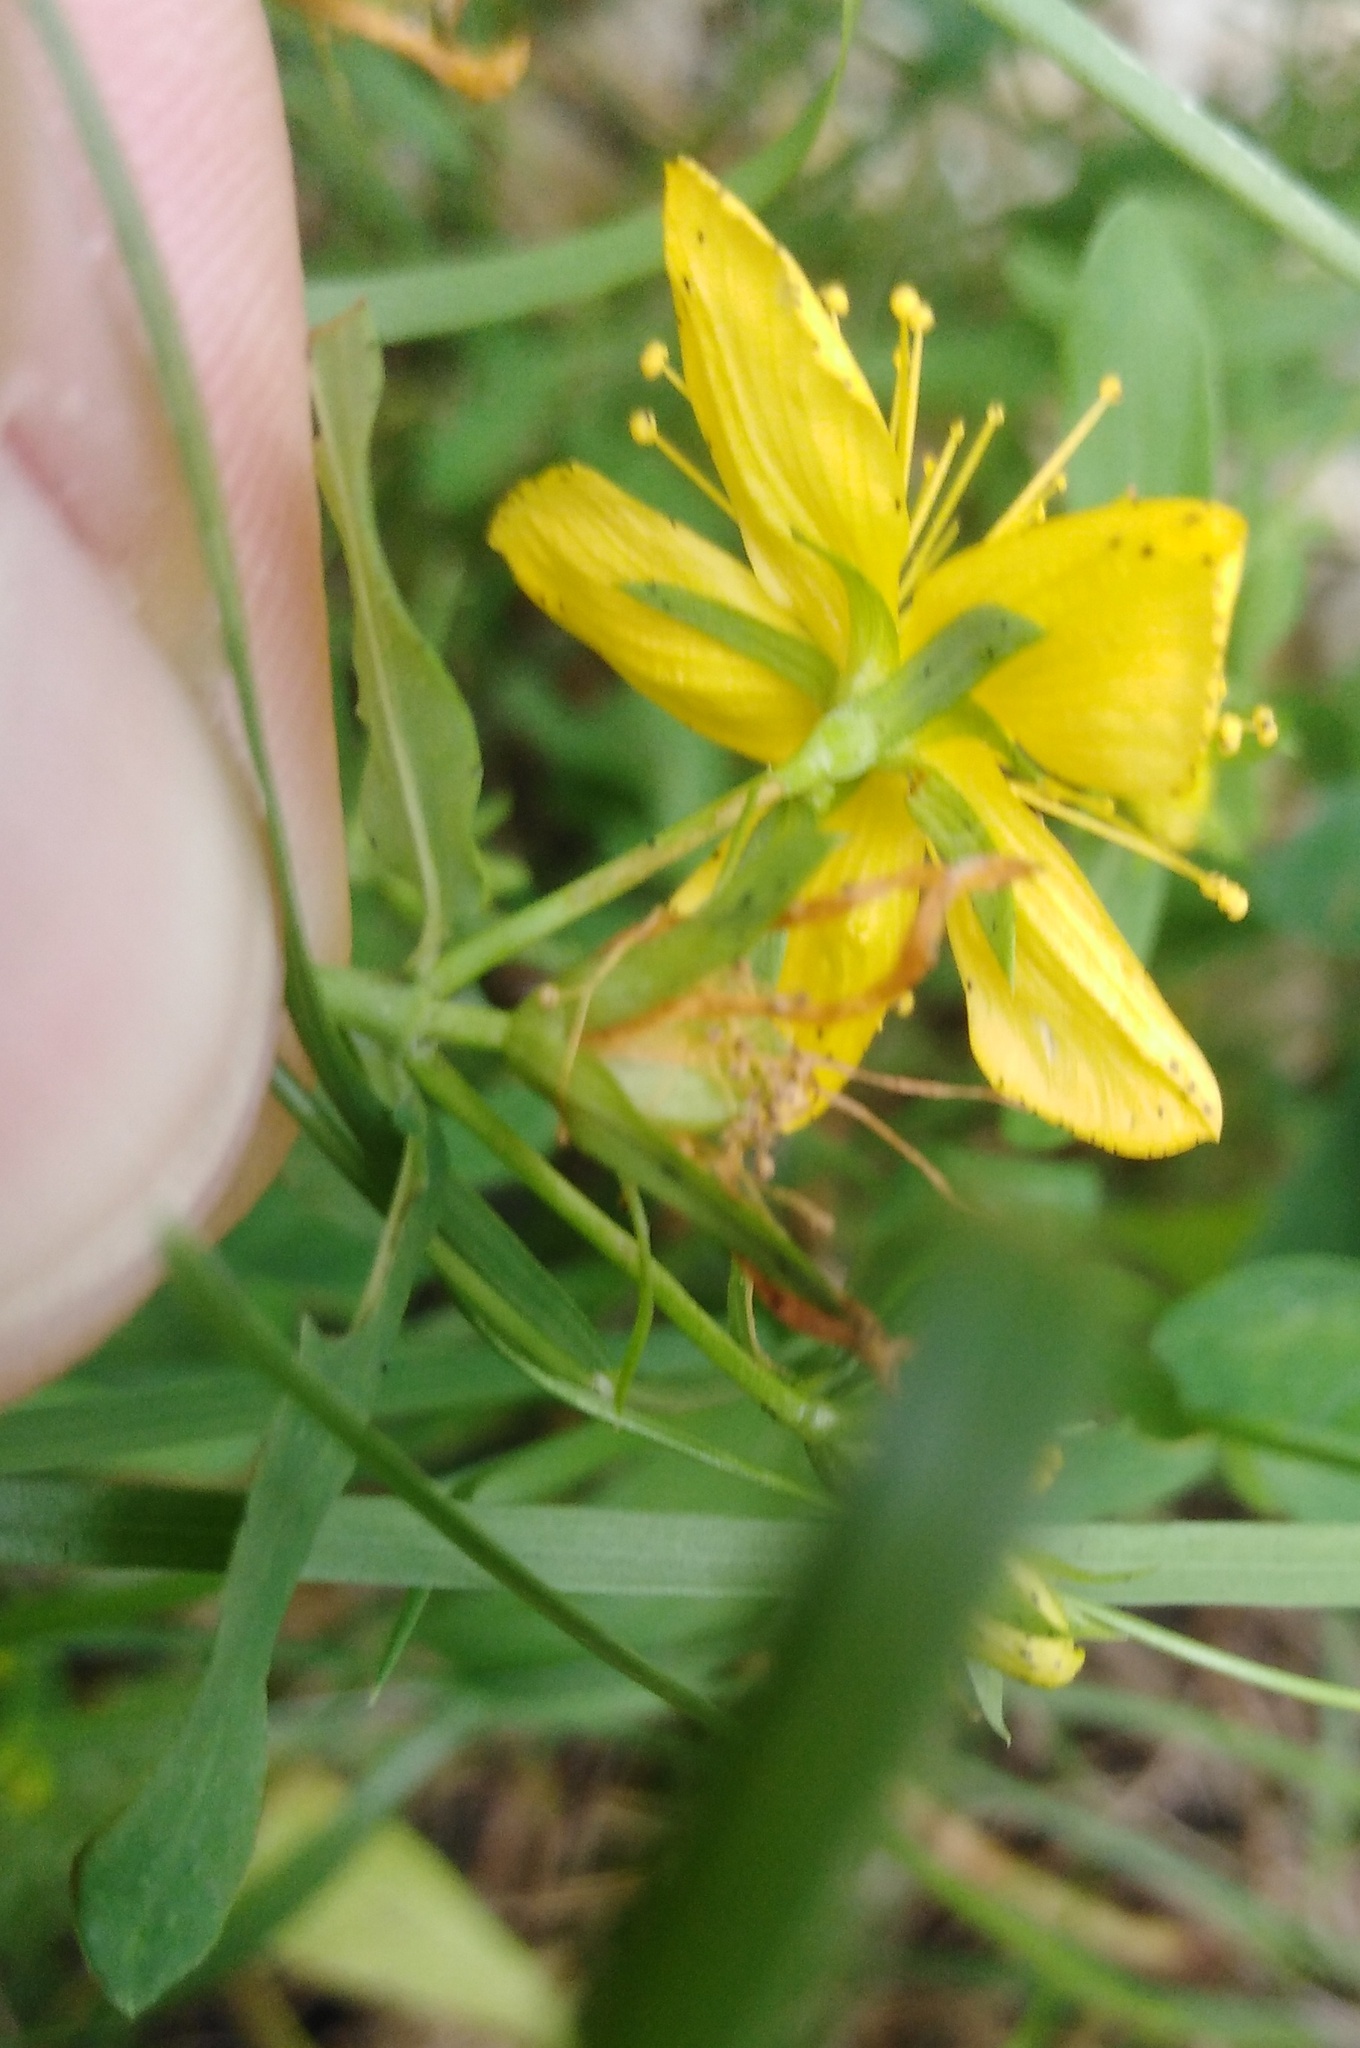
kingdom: Plantae
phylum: Tracheophyta
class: Magnoliopsida
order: Malpighiales
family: Hypericaceae
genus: Hypericum
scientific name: Hypericum perforatum
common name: Common st. johnswort
